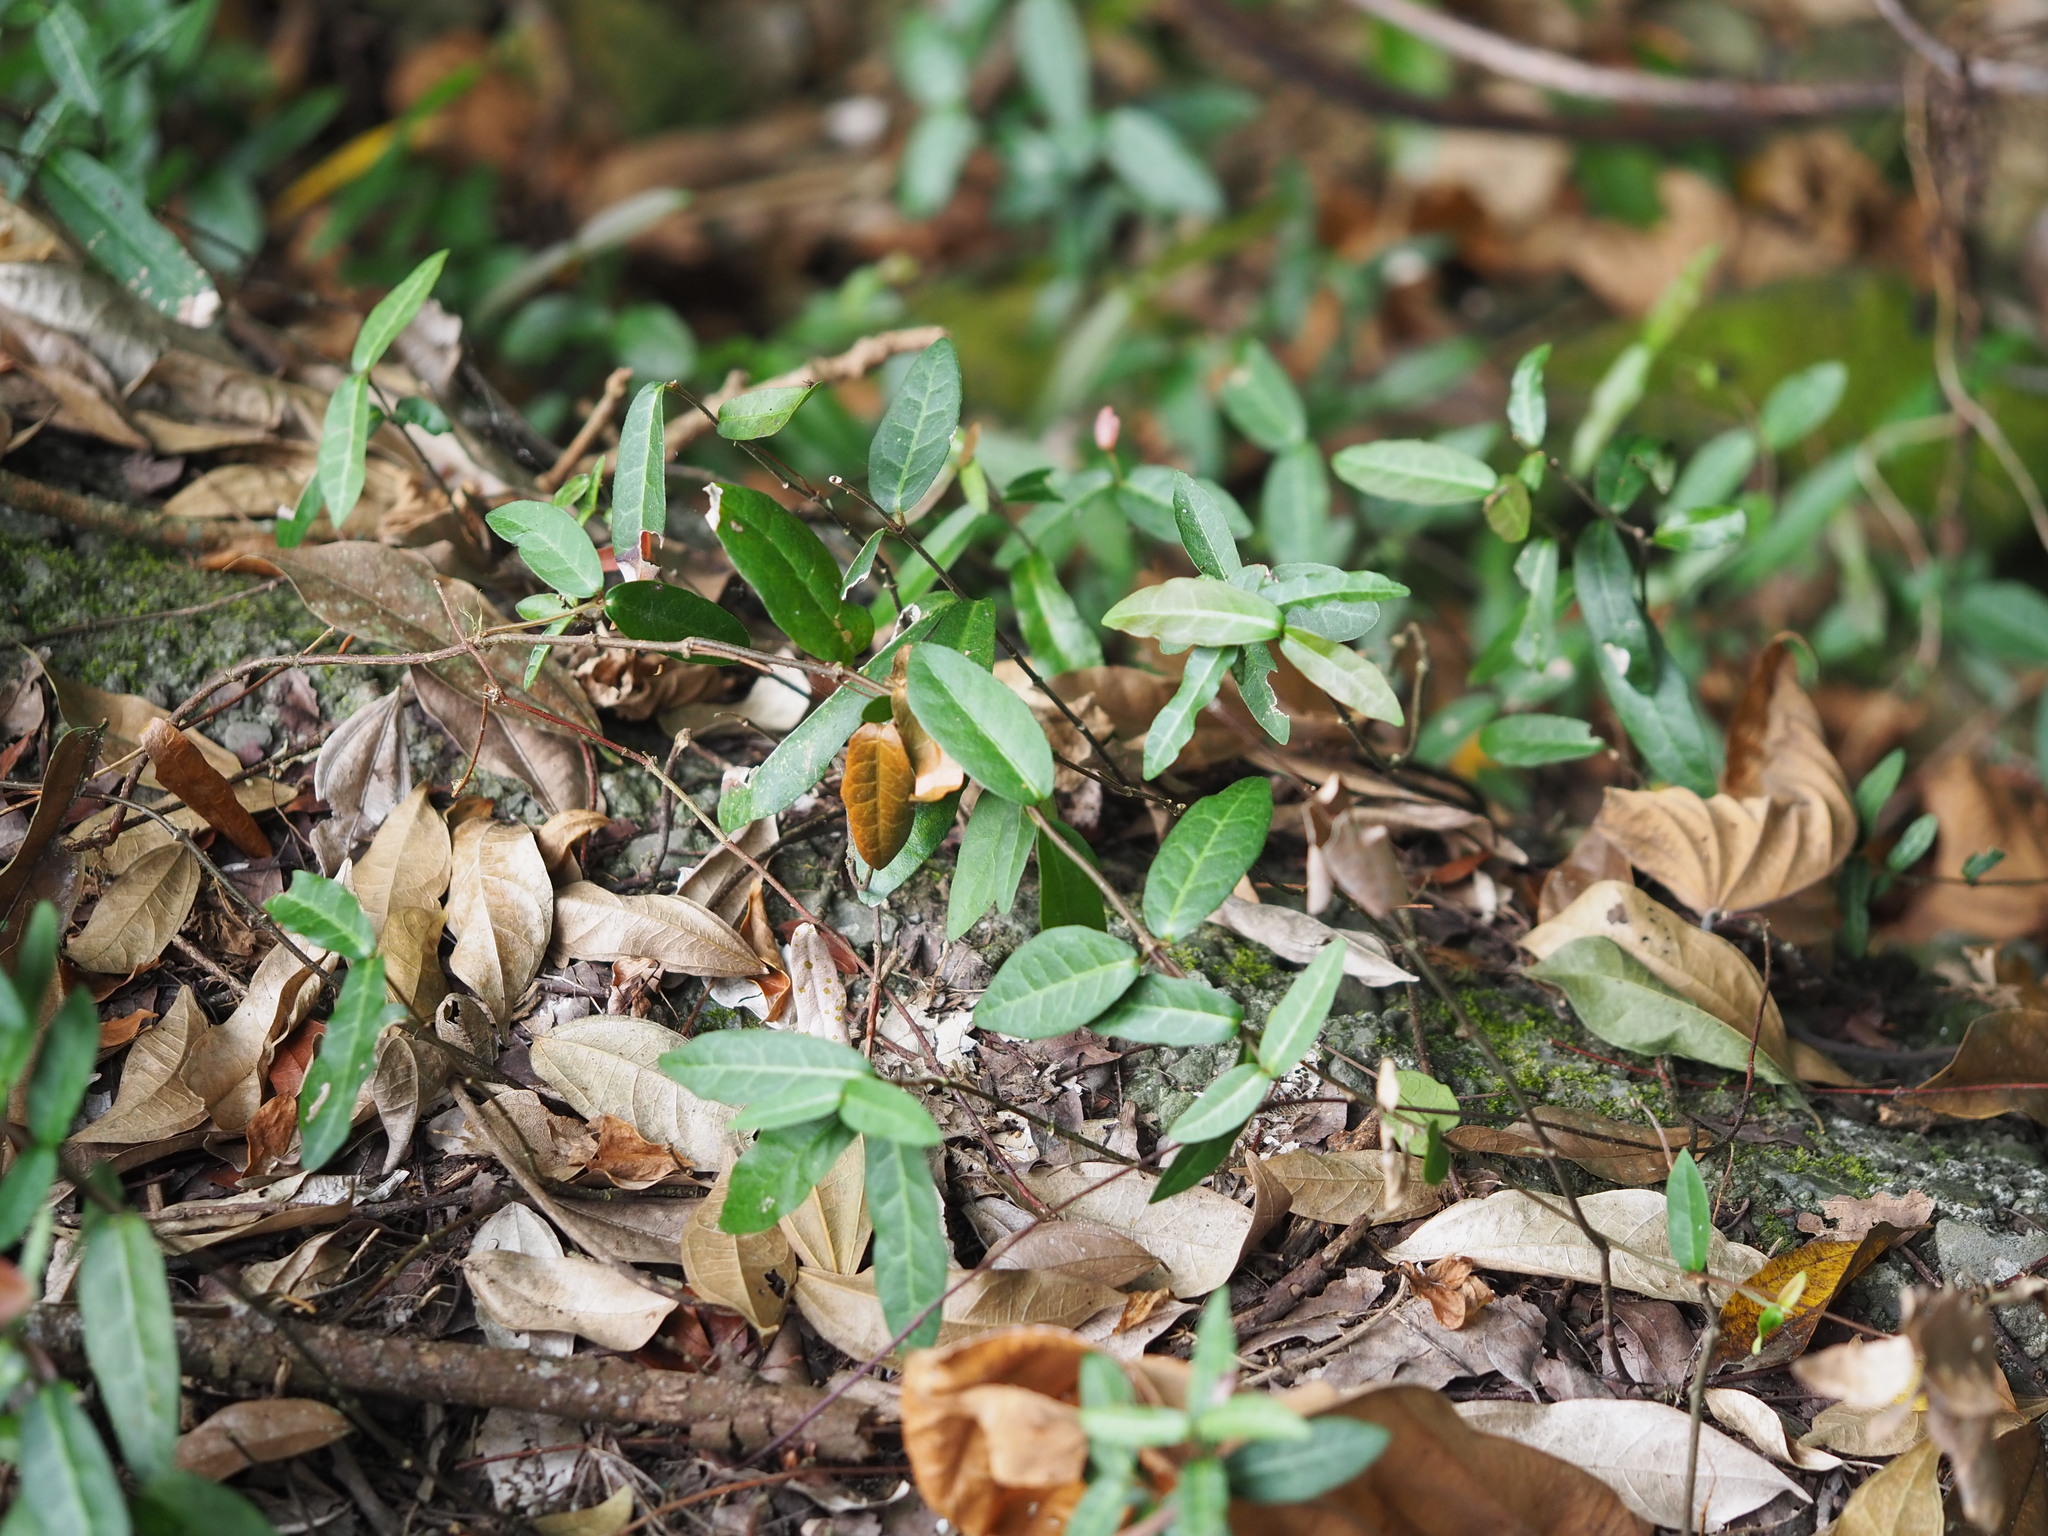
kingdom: Plantae
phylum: Tracheophyta
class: Magnoliopsida
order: Gentianales
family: Apocynaceae
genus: Trachelospermum
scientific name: Trachelospermum jasminoides
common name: Confederate jasmine
